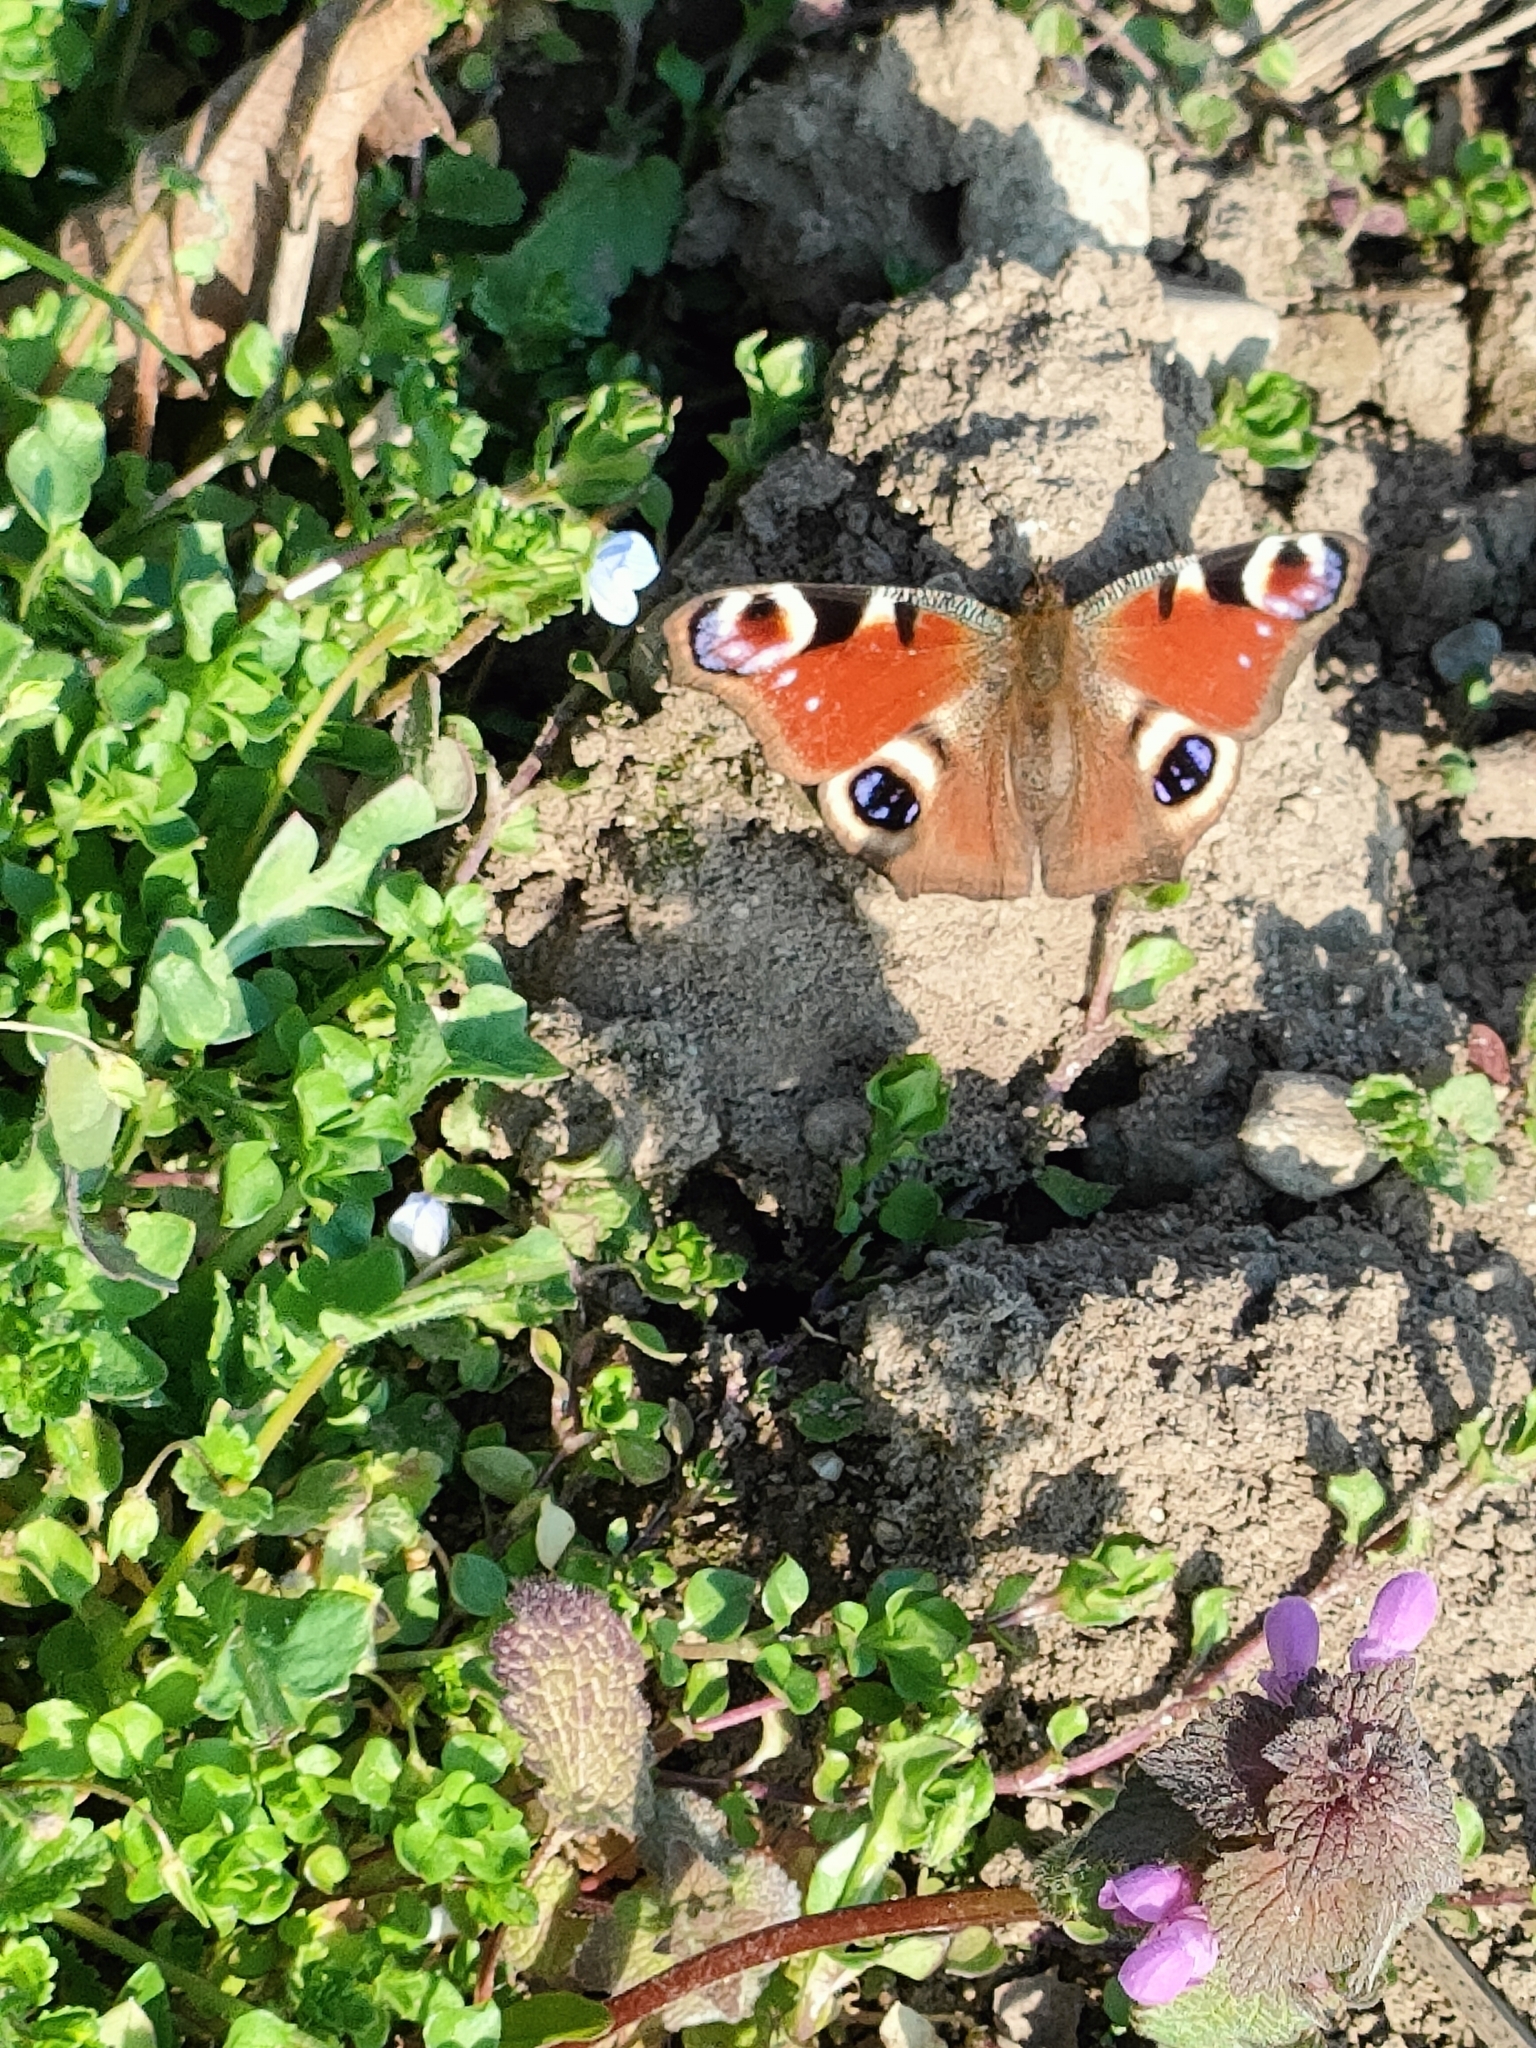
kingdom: Animalia
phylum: Arthropoda
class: Insecta
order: Lepidoptera
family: Nymphalidae
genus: Aglais
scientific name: Aglais io
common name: Peacock
